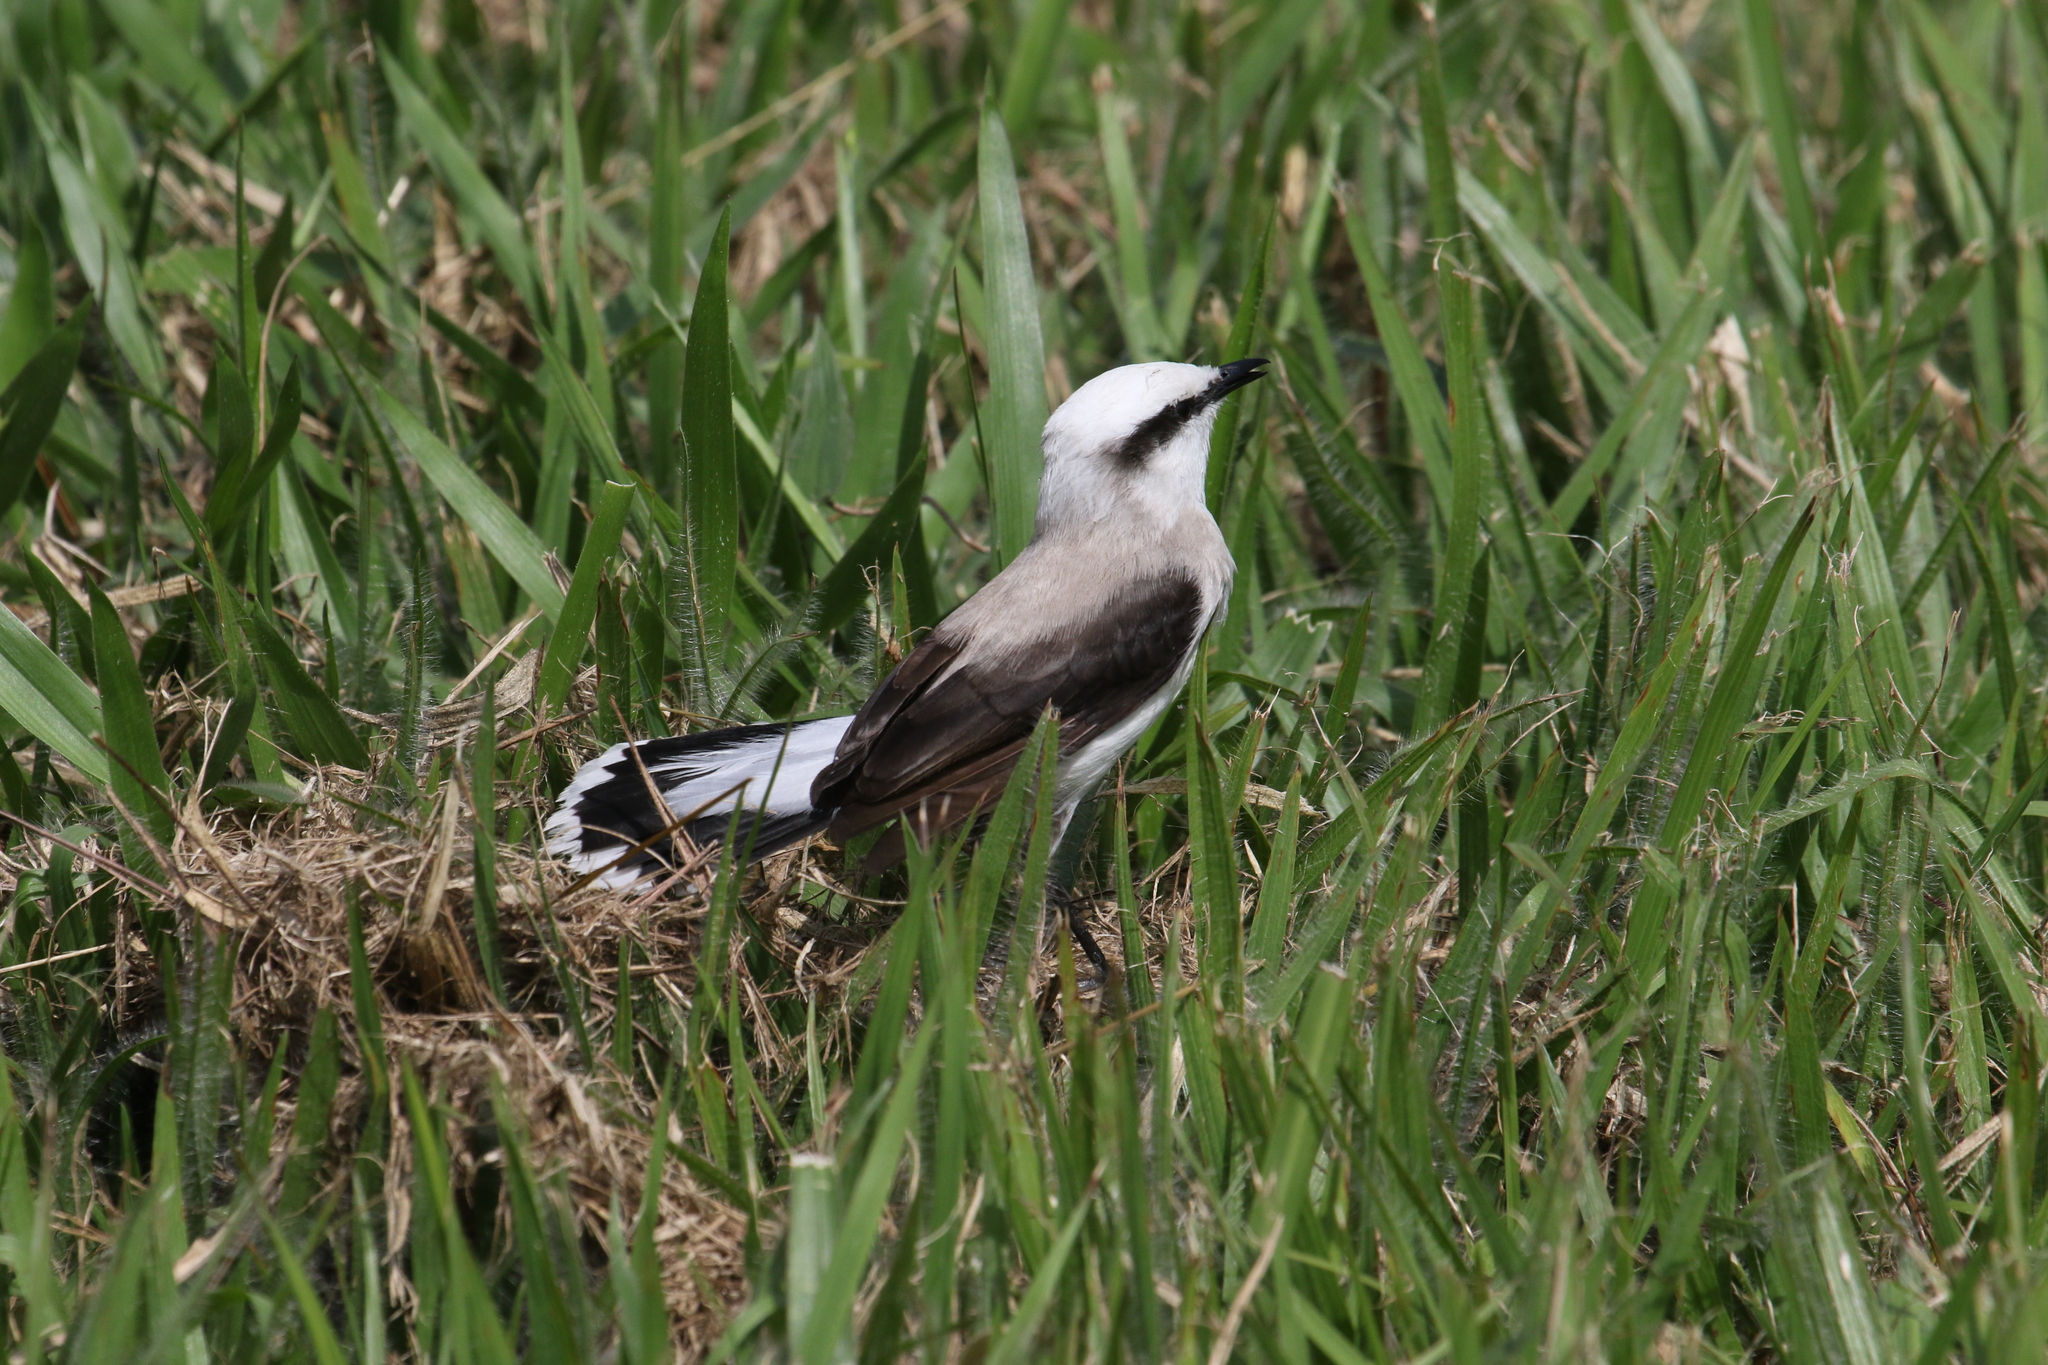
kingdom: Animalia
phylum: Chordata
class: Aves
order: Passeriformes
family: Tyrannidae
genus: Fluvicola
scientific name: Fluvicola nengeta
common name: Masked water tyrant
